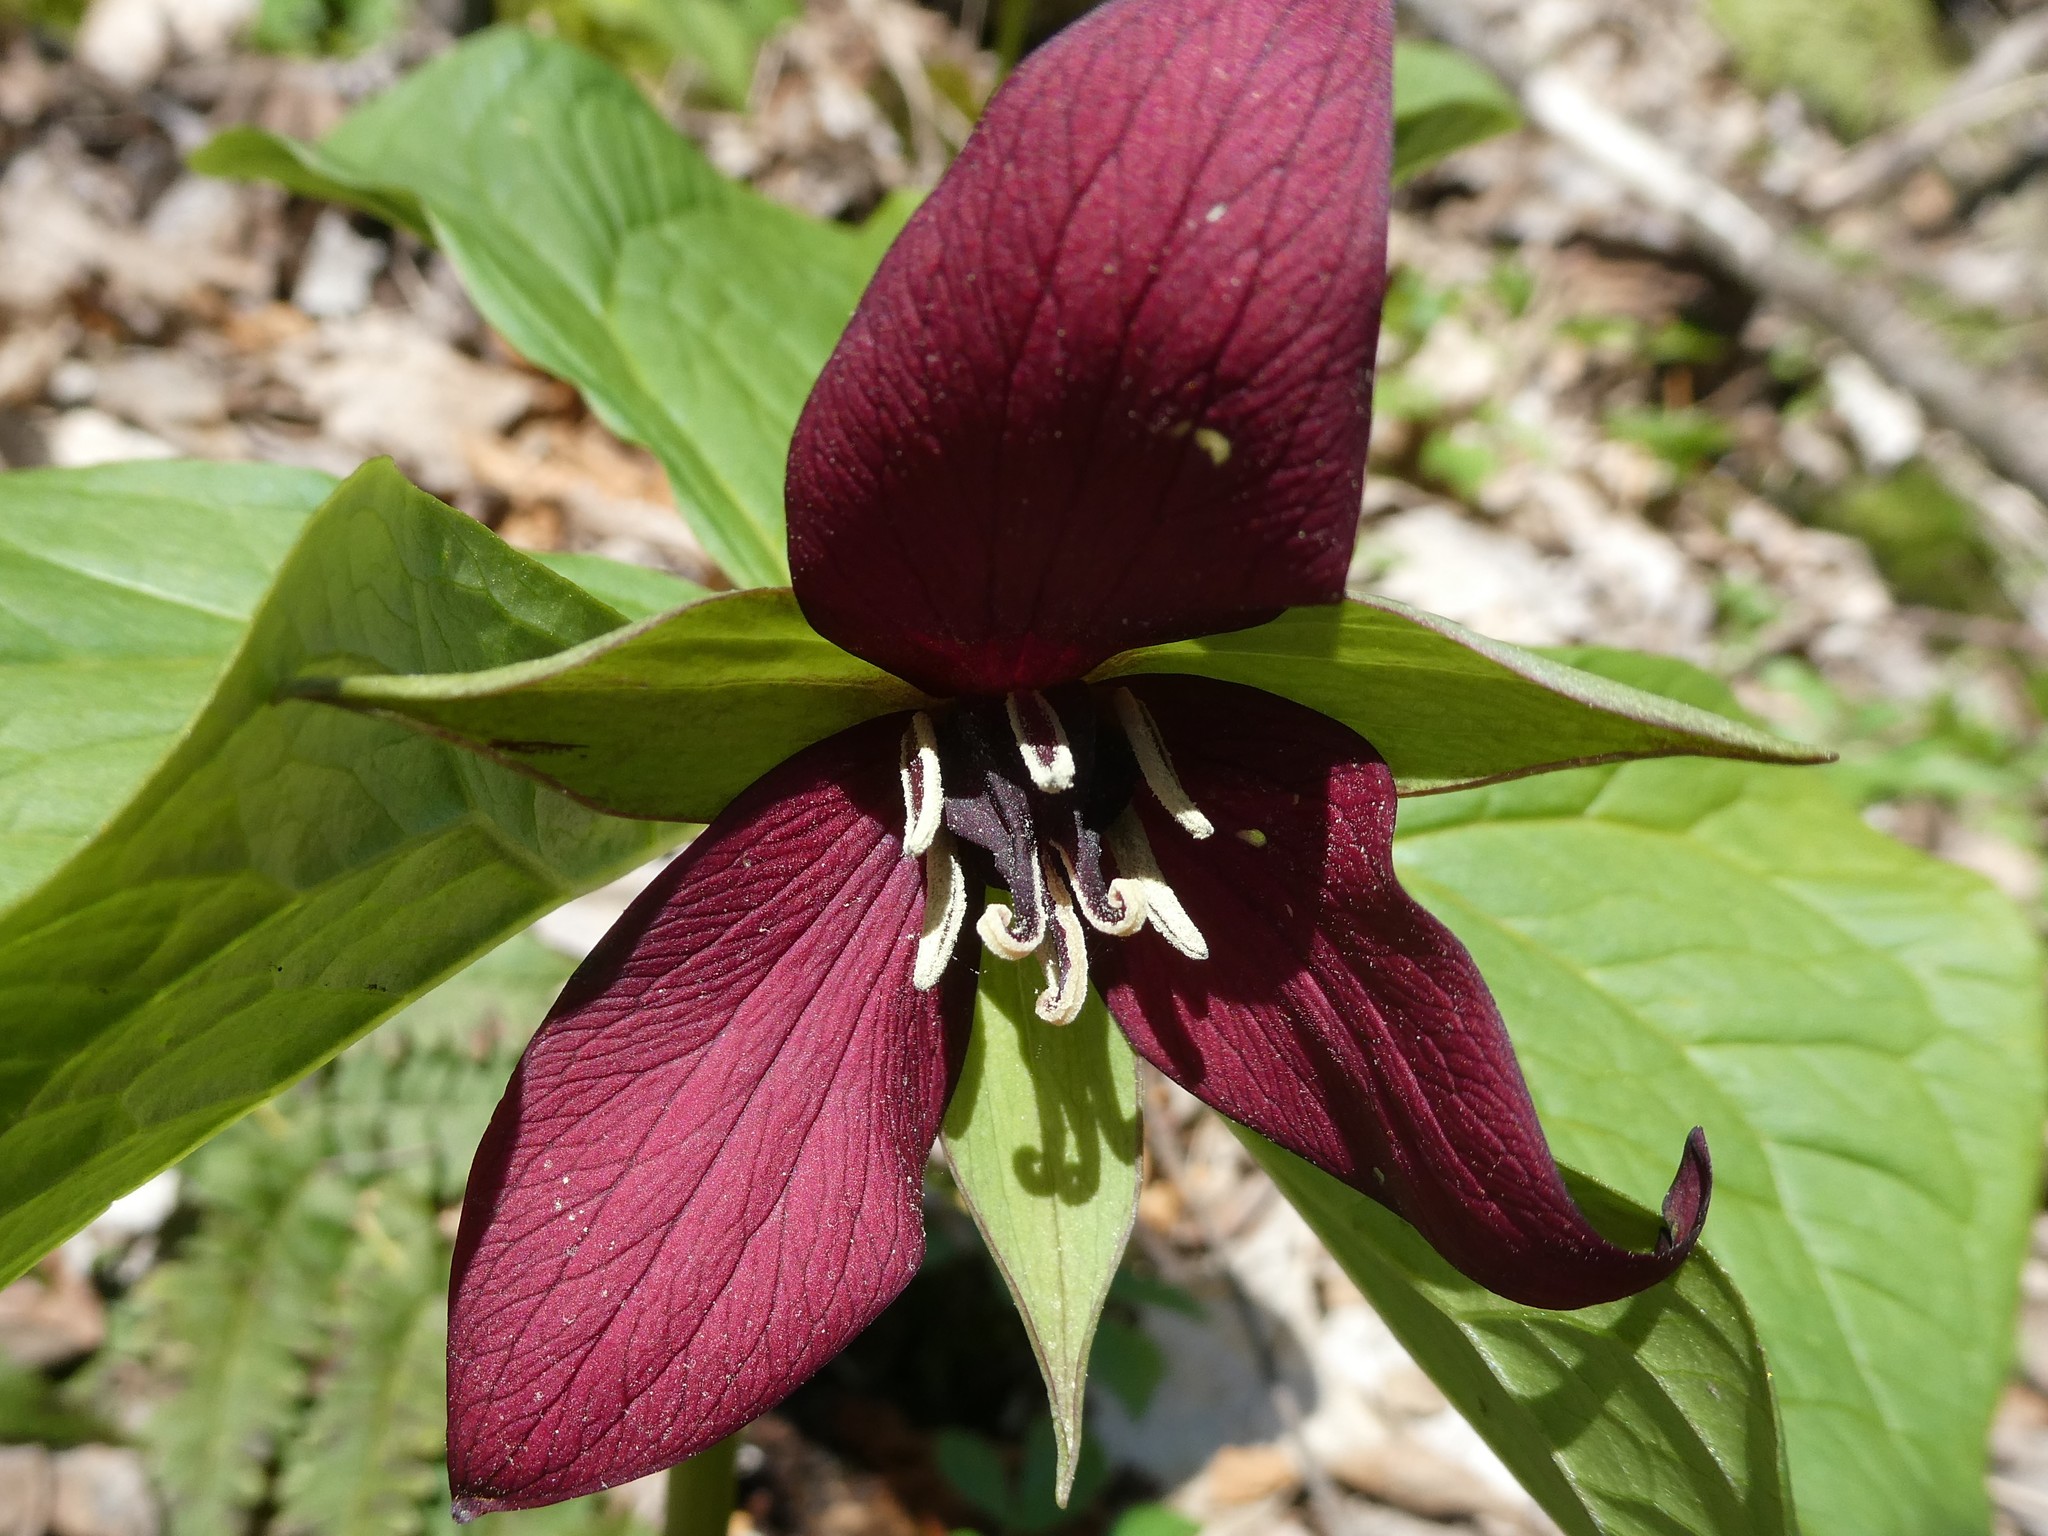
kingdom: Plantae
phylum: Tracheophyta
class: Liliopsida
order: Liliales
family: Melanthiaceae
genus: Trillium
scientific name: Trillium erectum
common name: Purple trillium
